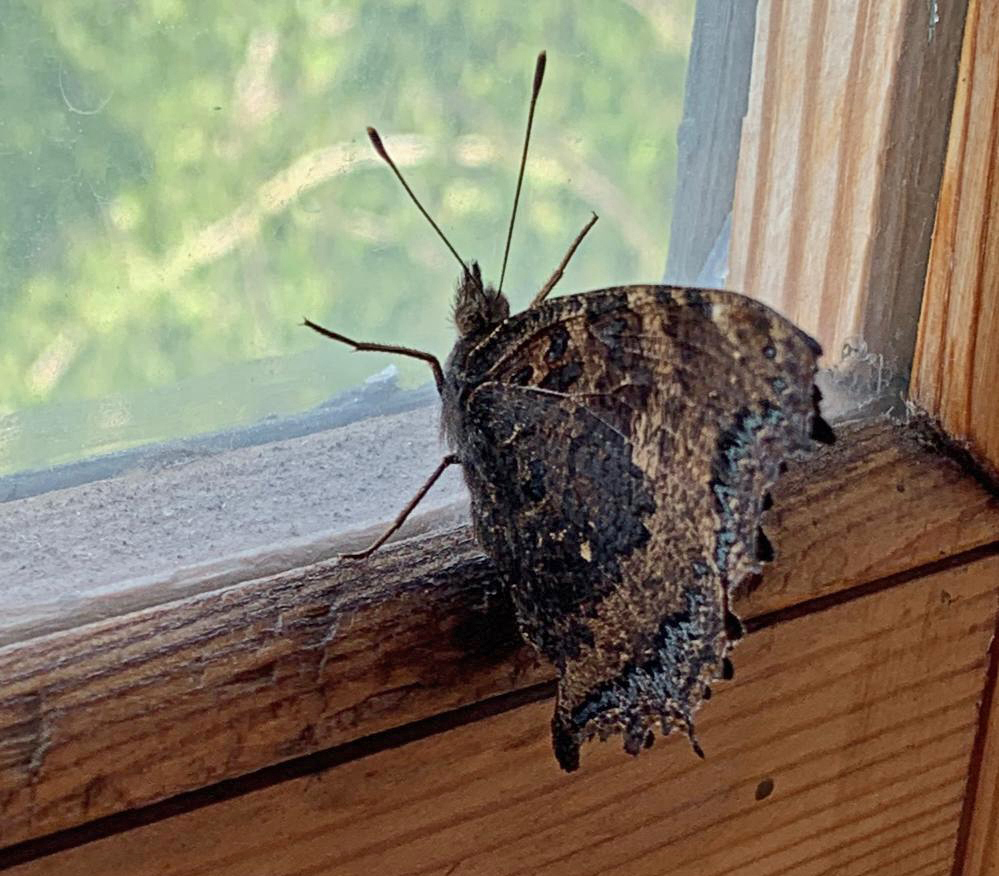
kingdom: Animalia
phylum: Arthropoda
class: Insecta
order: Lepidoptera
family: Nymphalidae
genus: Nymphalis
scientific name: Nymphalis xanthomelas
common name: Scarce tortoiseshell
